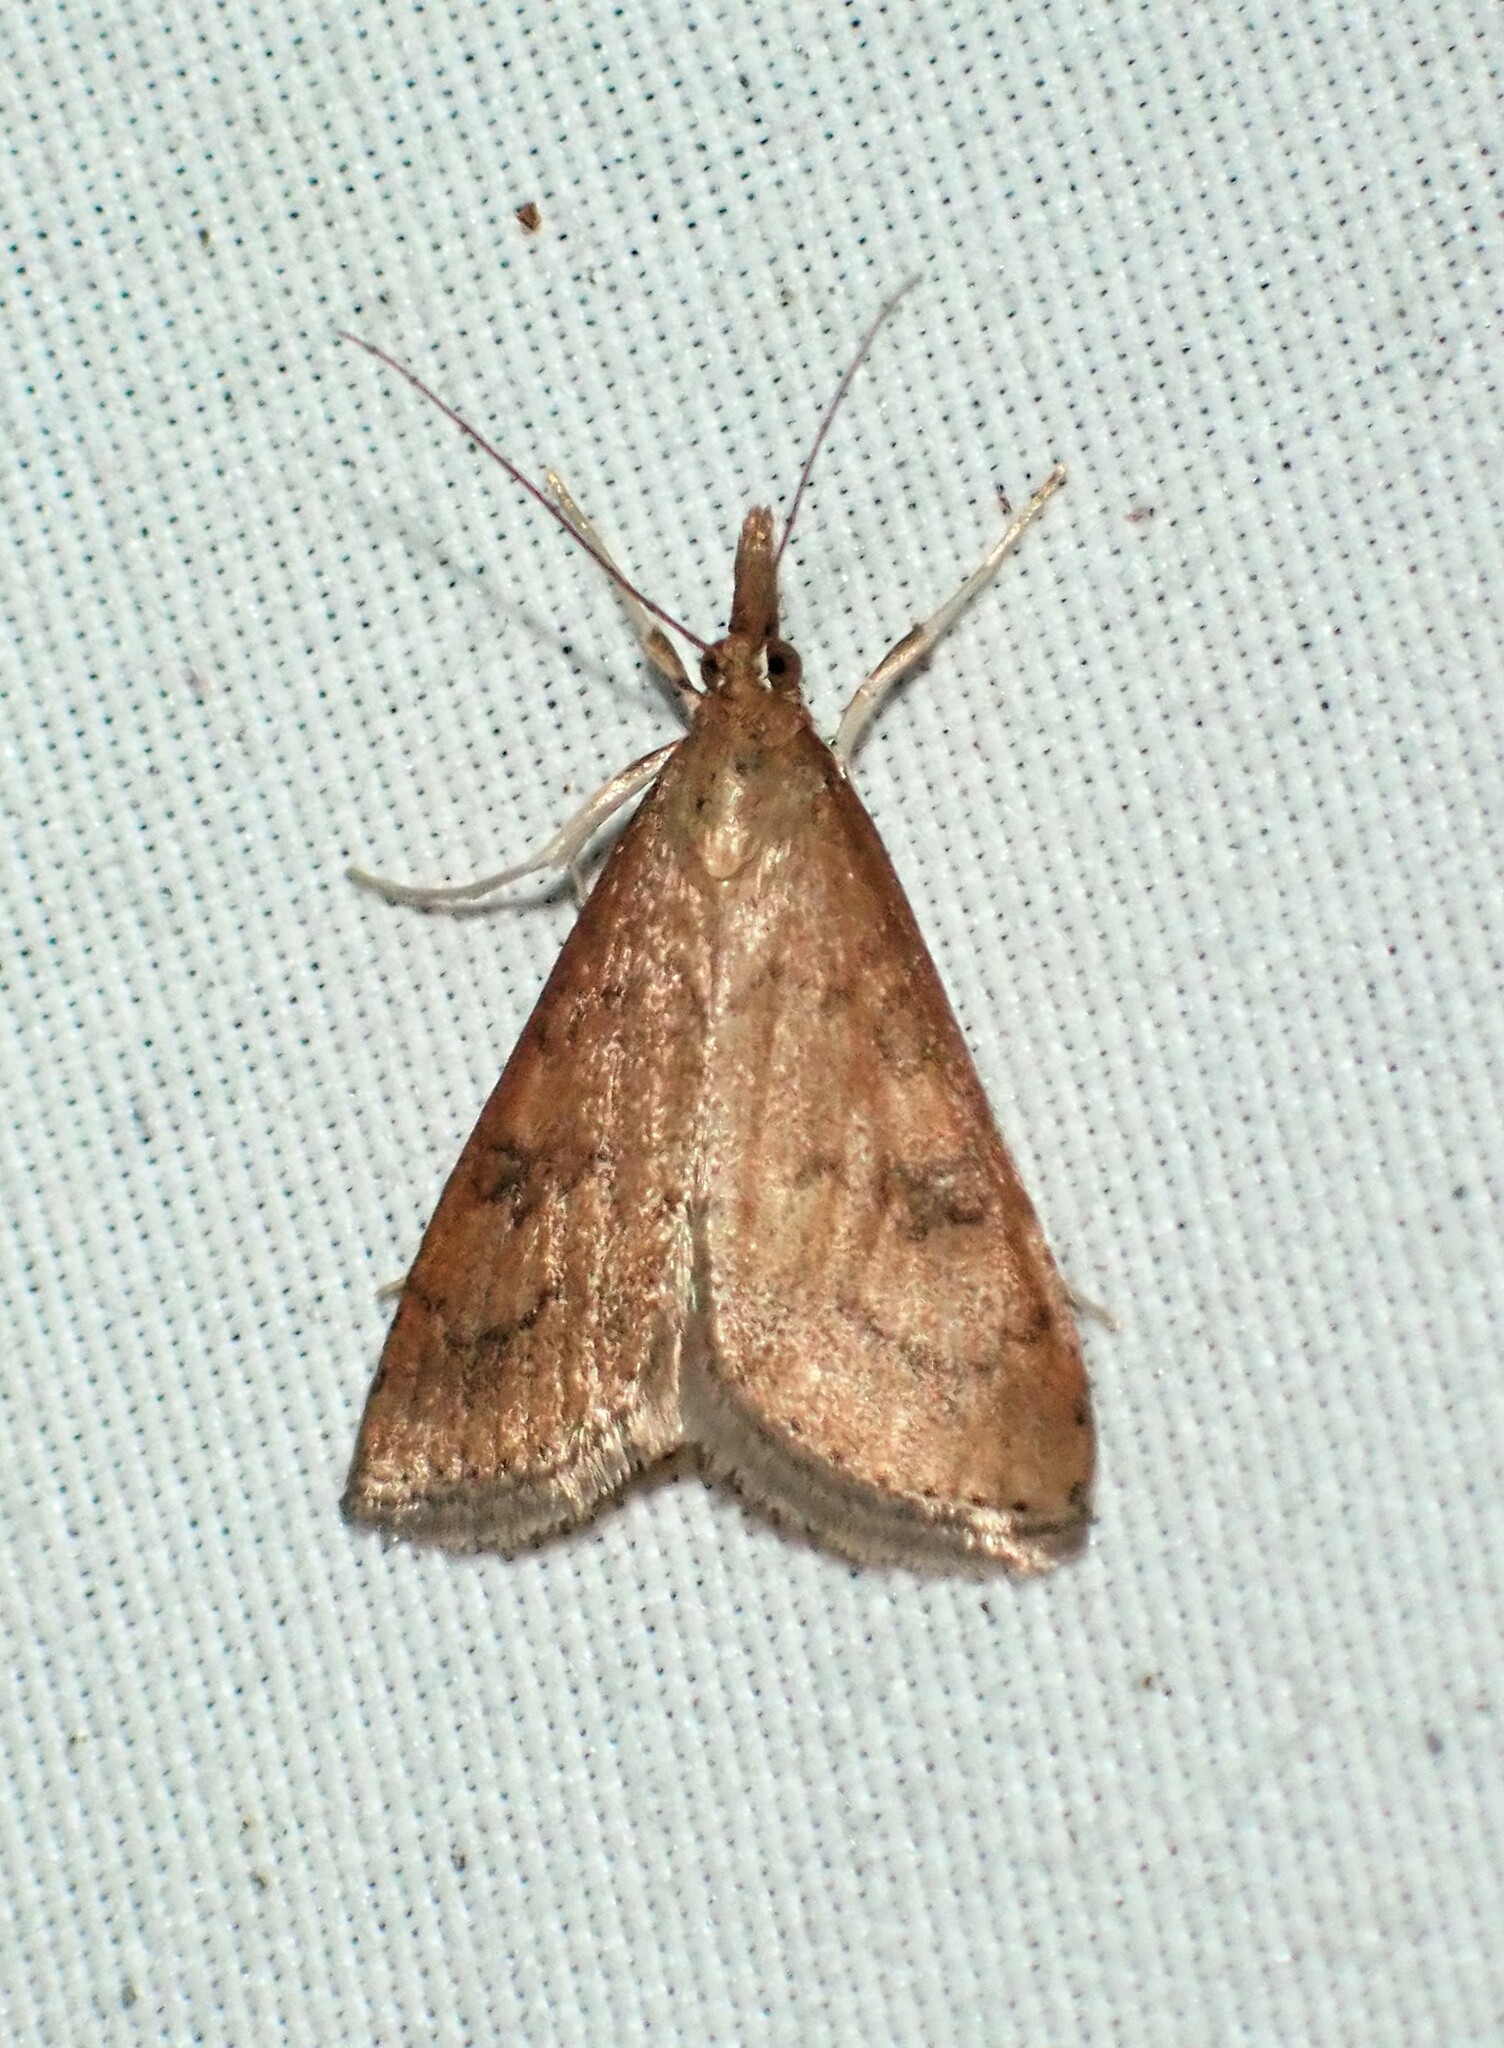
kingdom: Animalia
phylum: Arthropoda
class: Insecta
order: Lepidoptera
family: Crambidae
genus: Udea
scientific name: Udea rubigalis
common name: Celery leaftier moth
